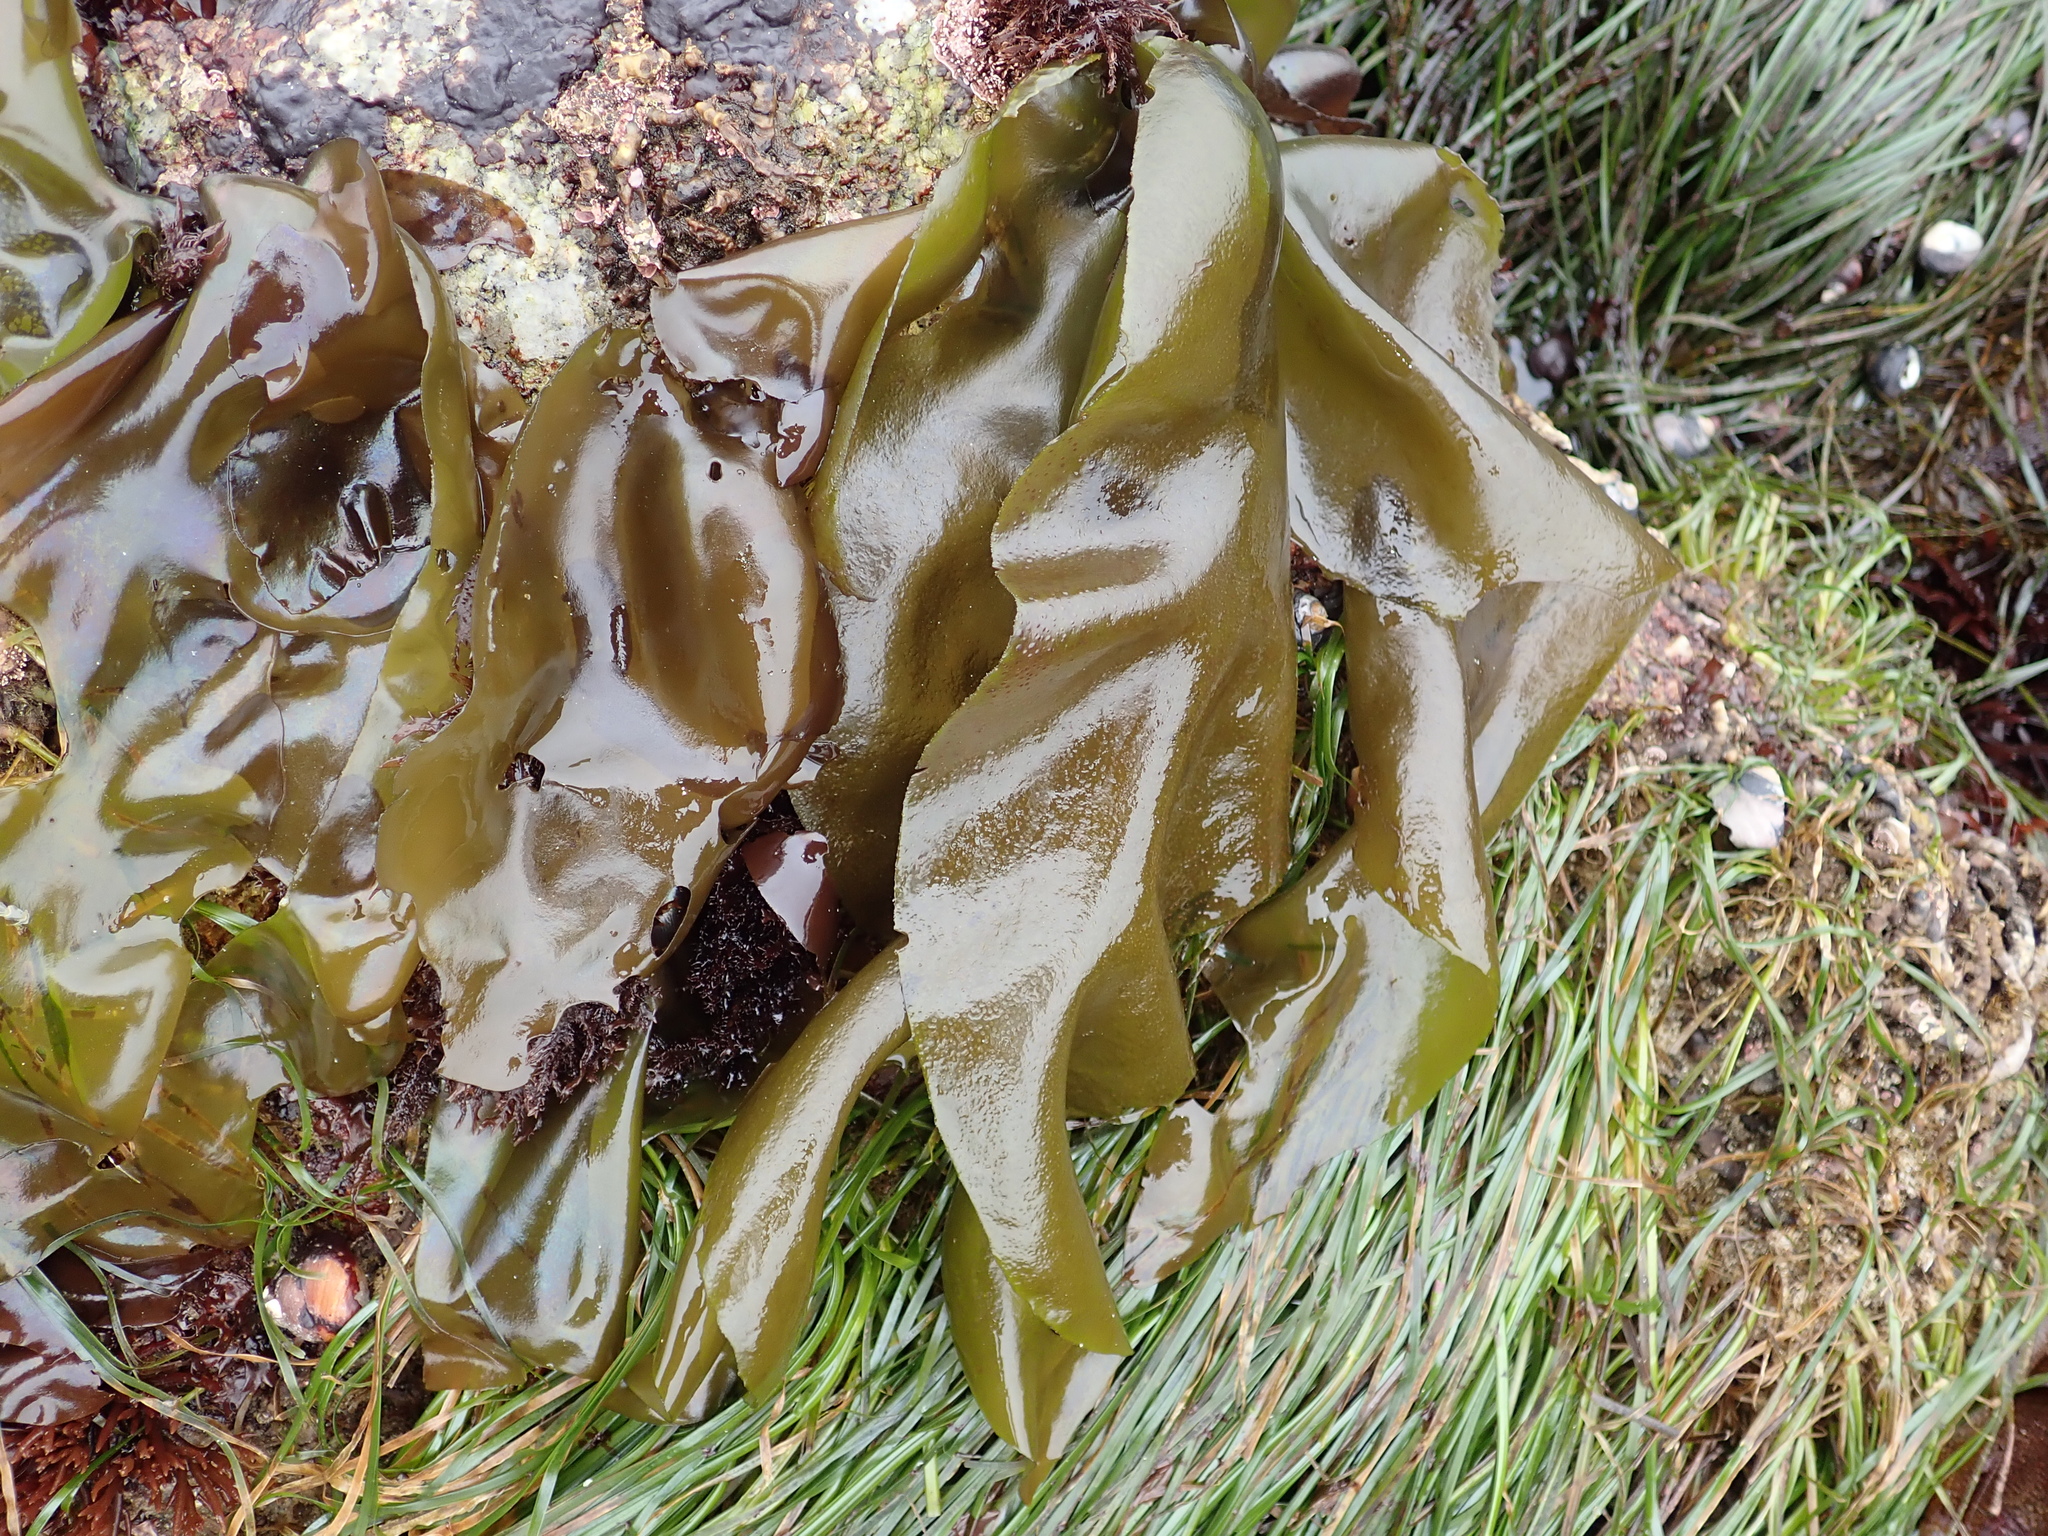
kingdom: Plantae
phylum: Rhodophyta
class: Florideophyceae
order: Gigartinales
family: Gigartinaceae
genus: Mazzaella
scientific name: Mazzaella flaccida
